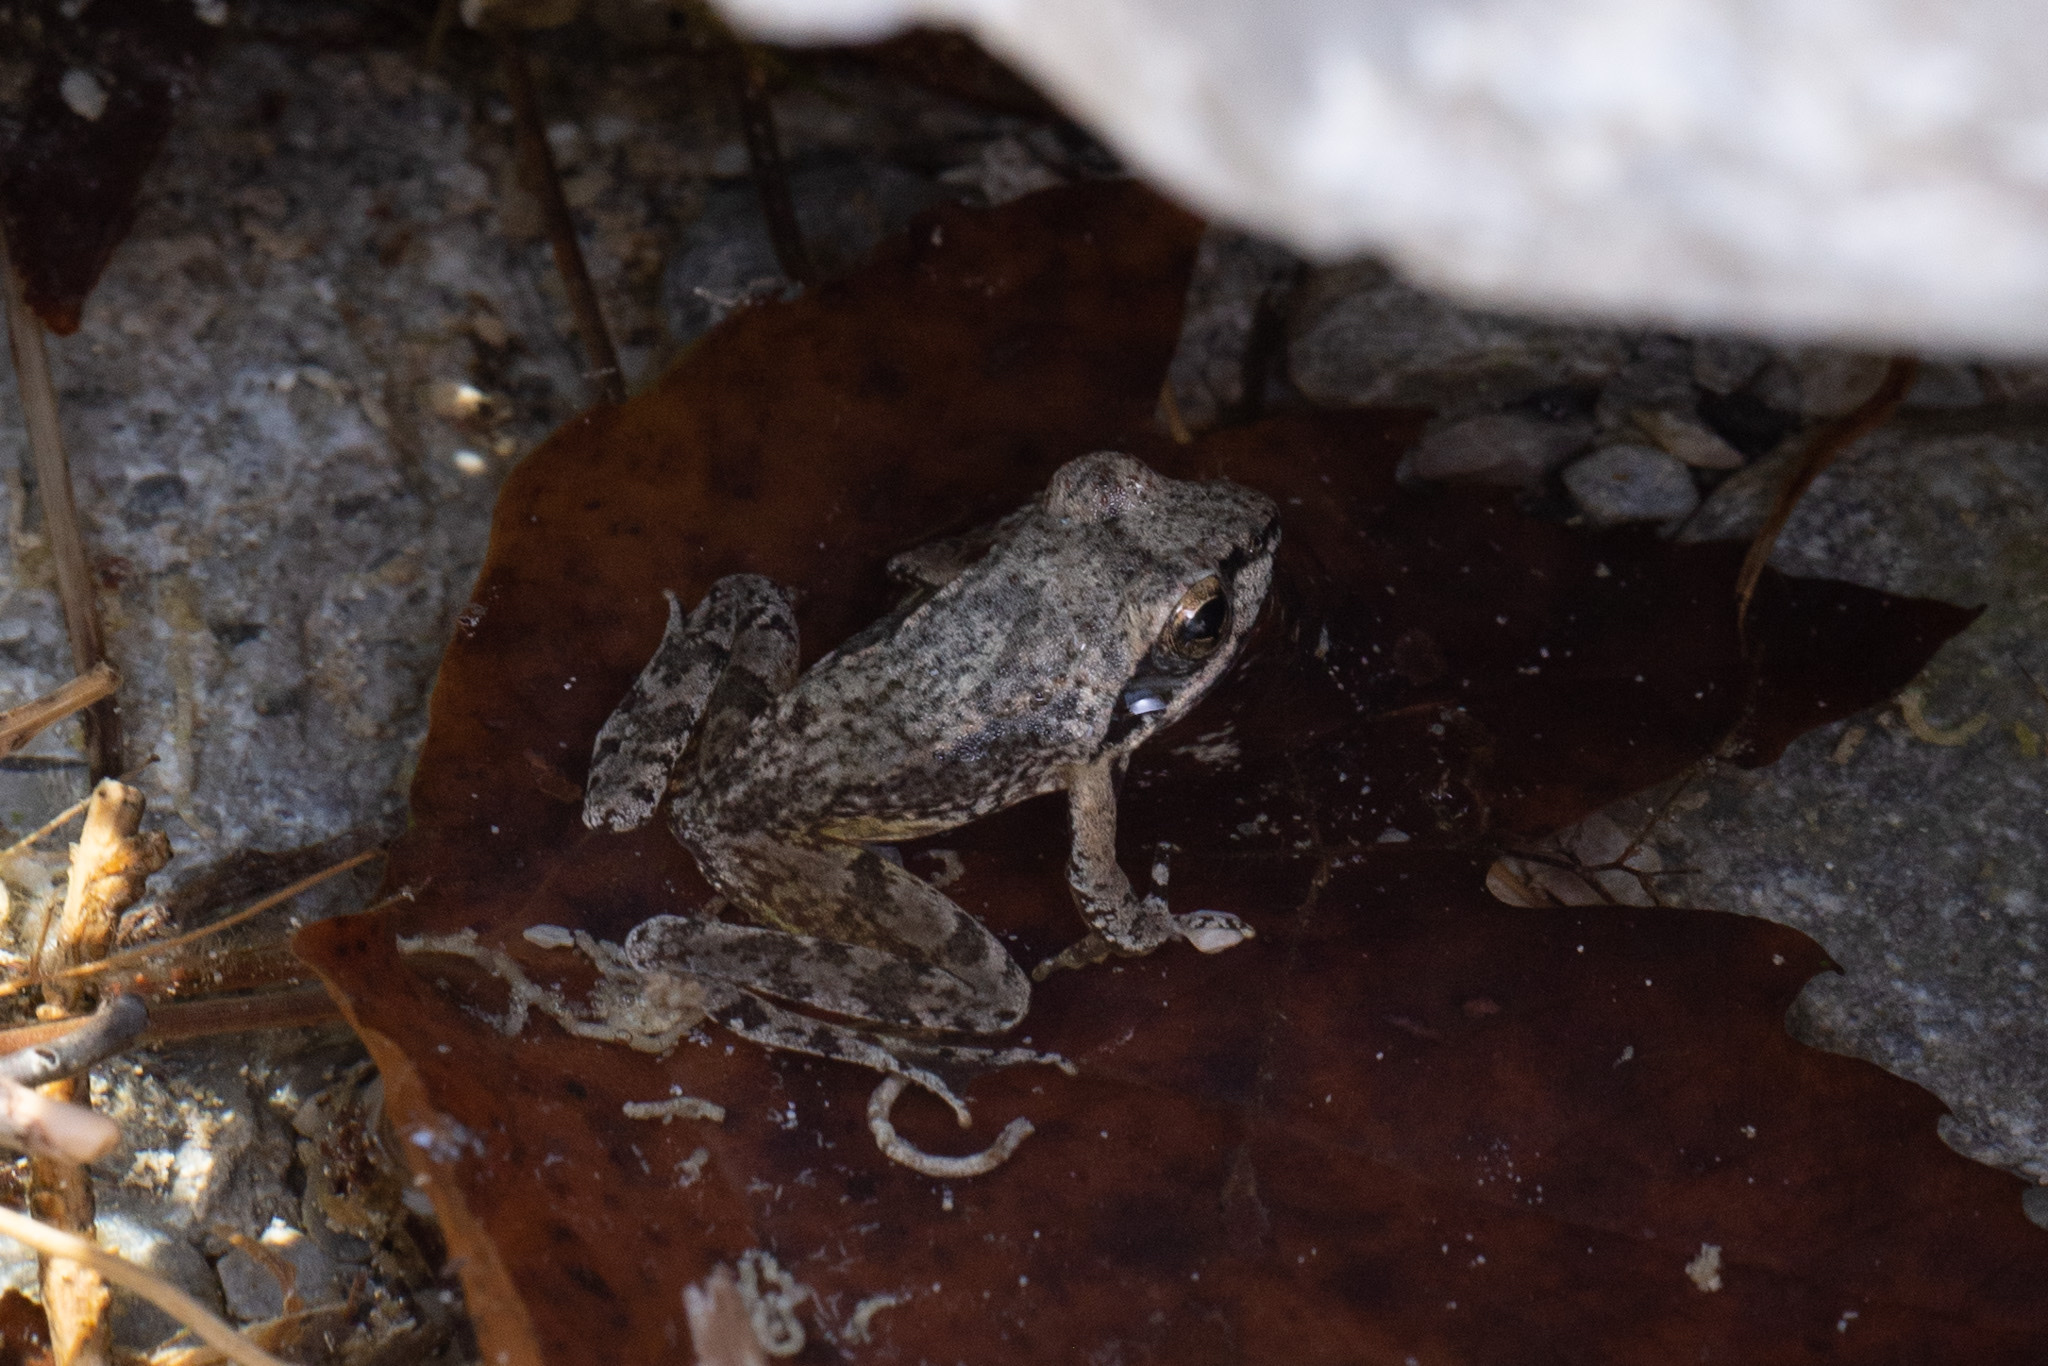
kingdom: Animalia
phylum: Chordata
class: Amphibia
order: Anura
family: Ranidae
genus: Rana
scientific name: Rana graeca
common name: Greek stream frog
